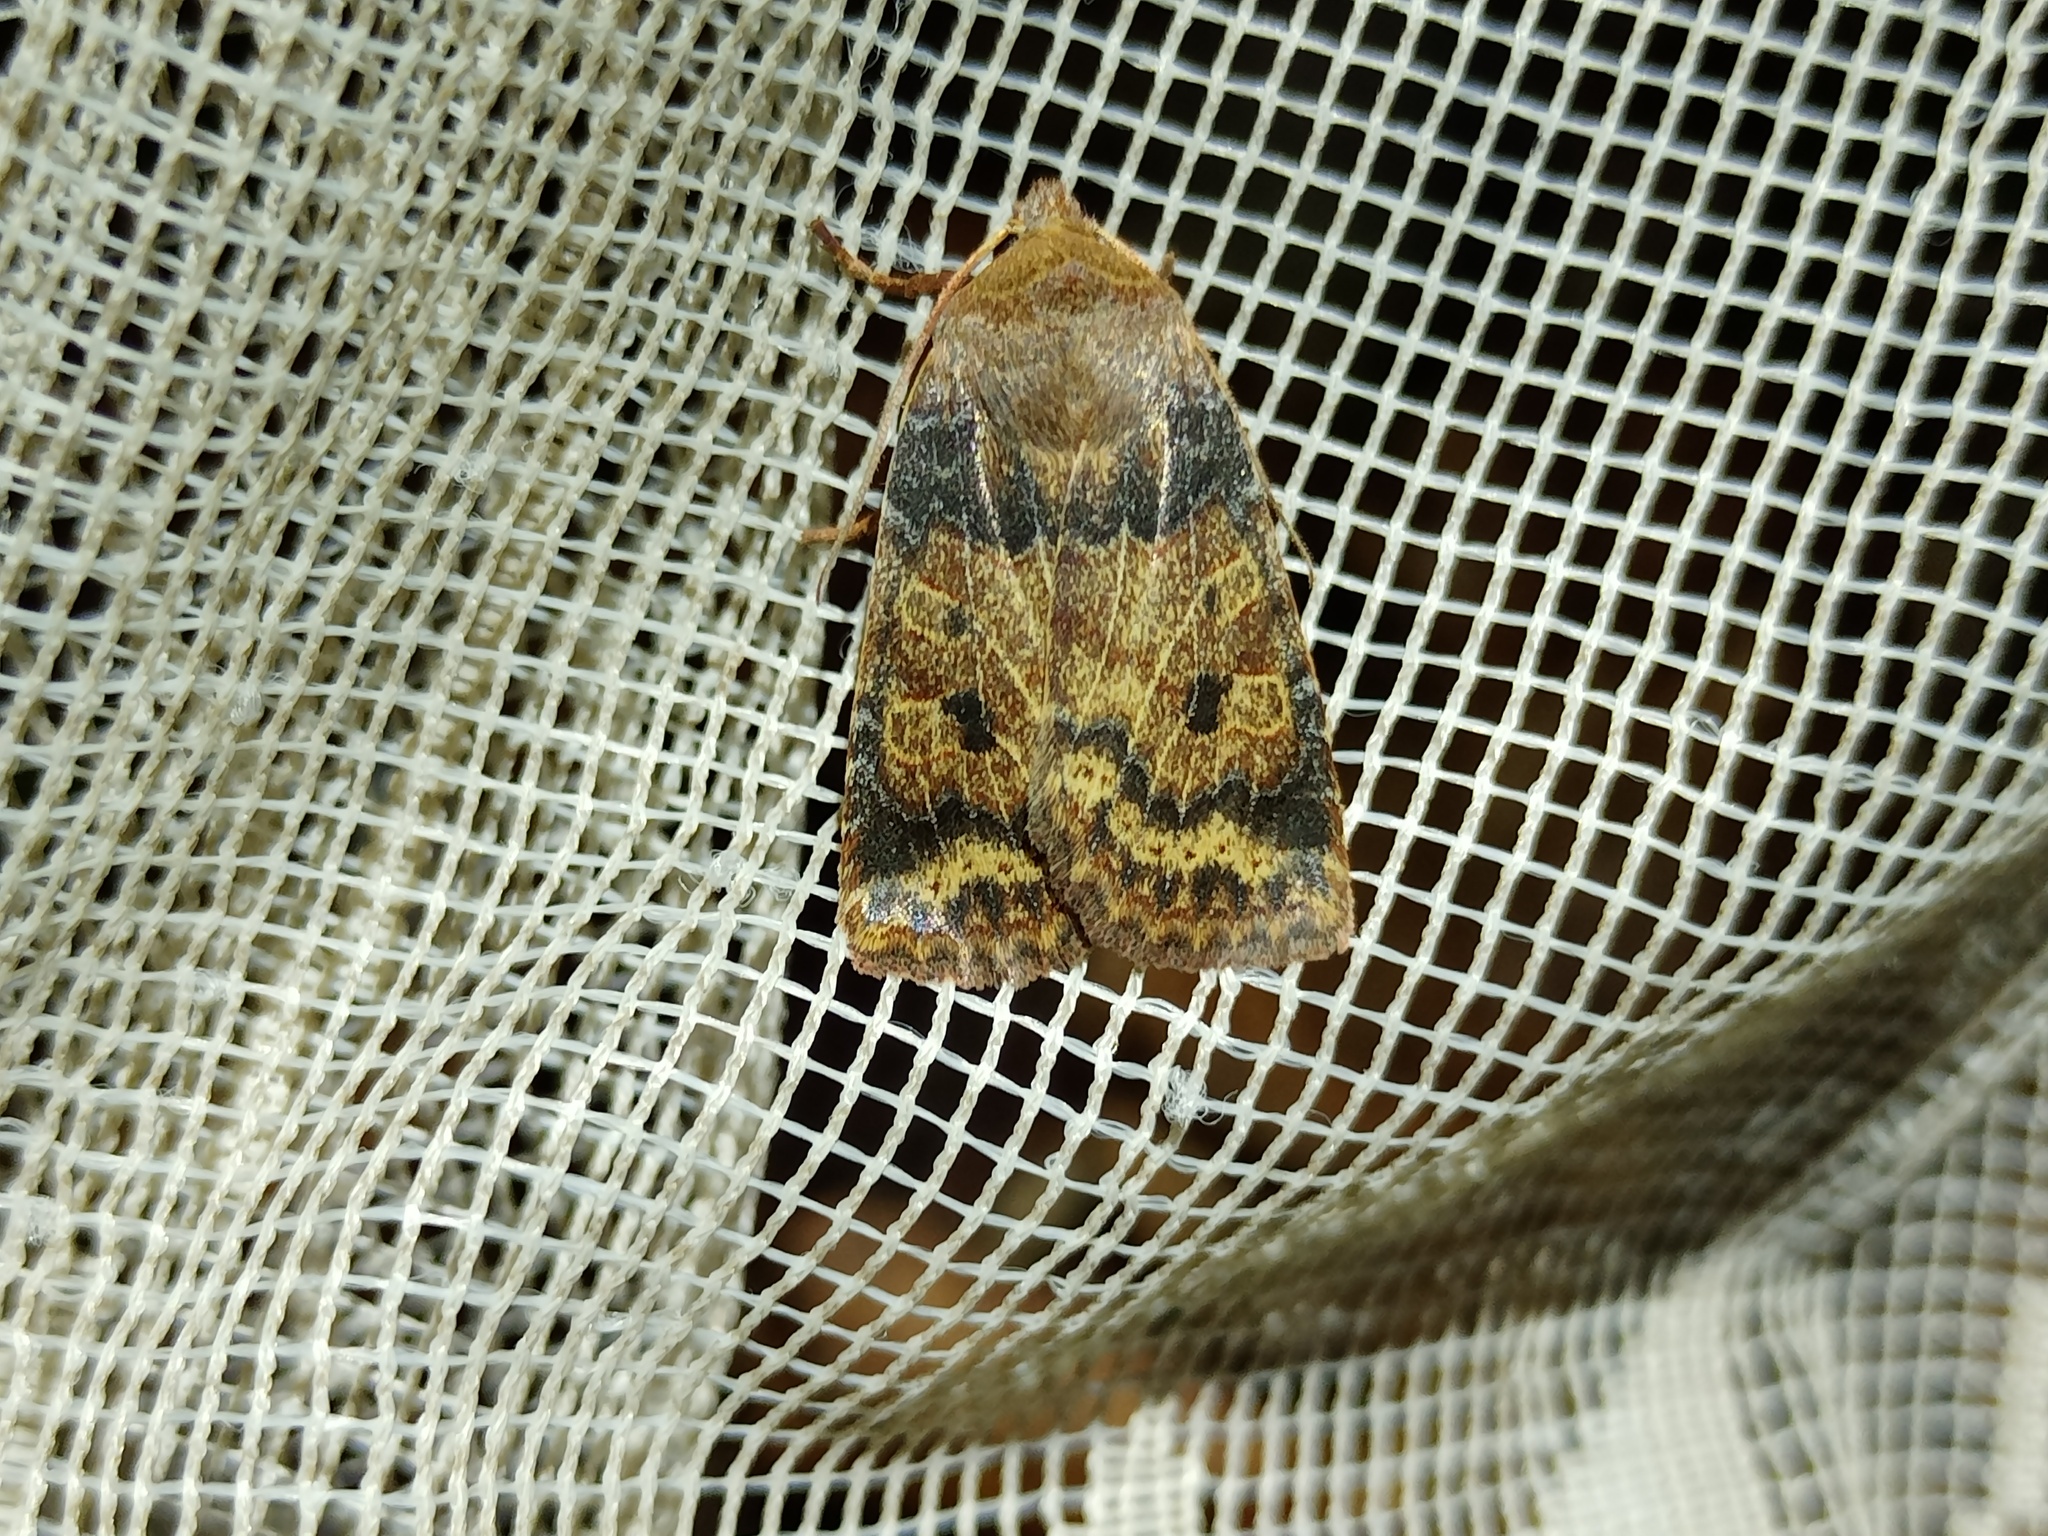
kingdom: Animalia
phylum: Arthropoda
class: Insecta
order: Lepidoptera
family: Noctuidae
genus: Conistra
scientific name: Conistra vaccinii
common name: Chestnut
